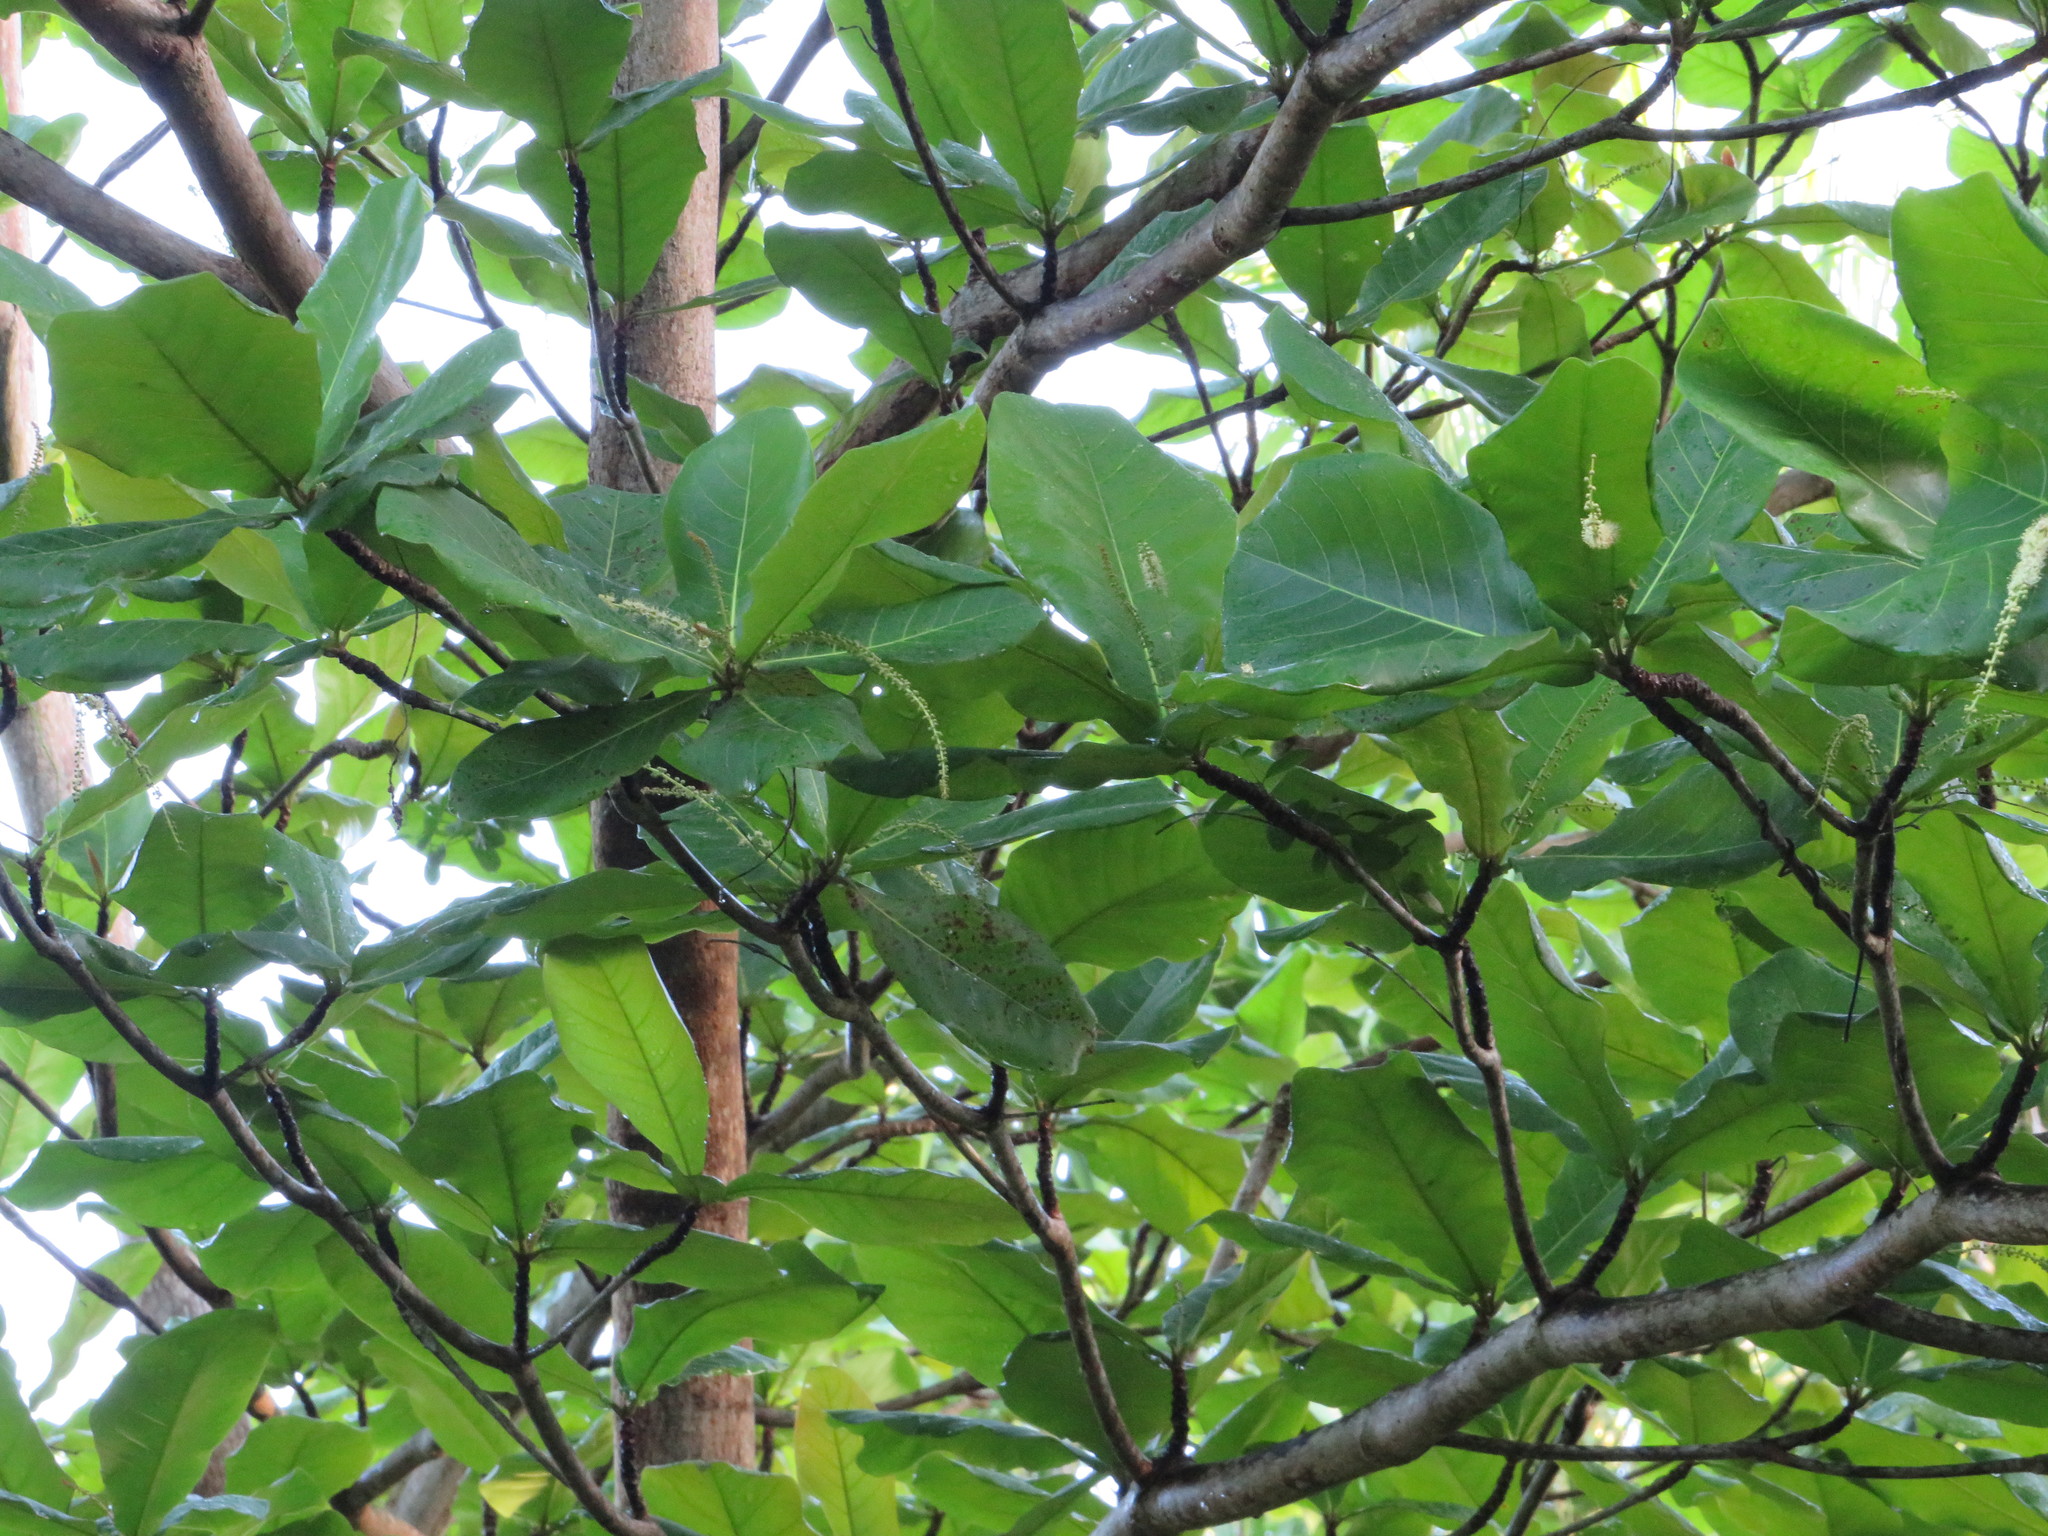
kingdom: Plantae
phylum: Tracheophyta
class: Magnoliopsida
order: Myrtales
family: Combretaceae
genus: Terminalia
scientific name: Terminalia catappa
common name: Tropical almond
